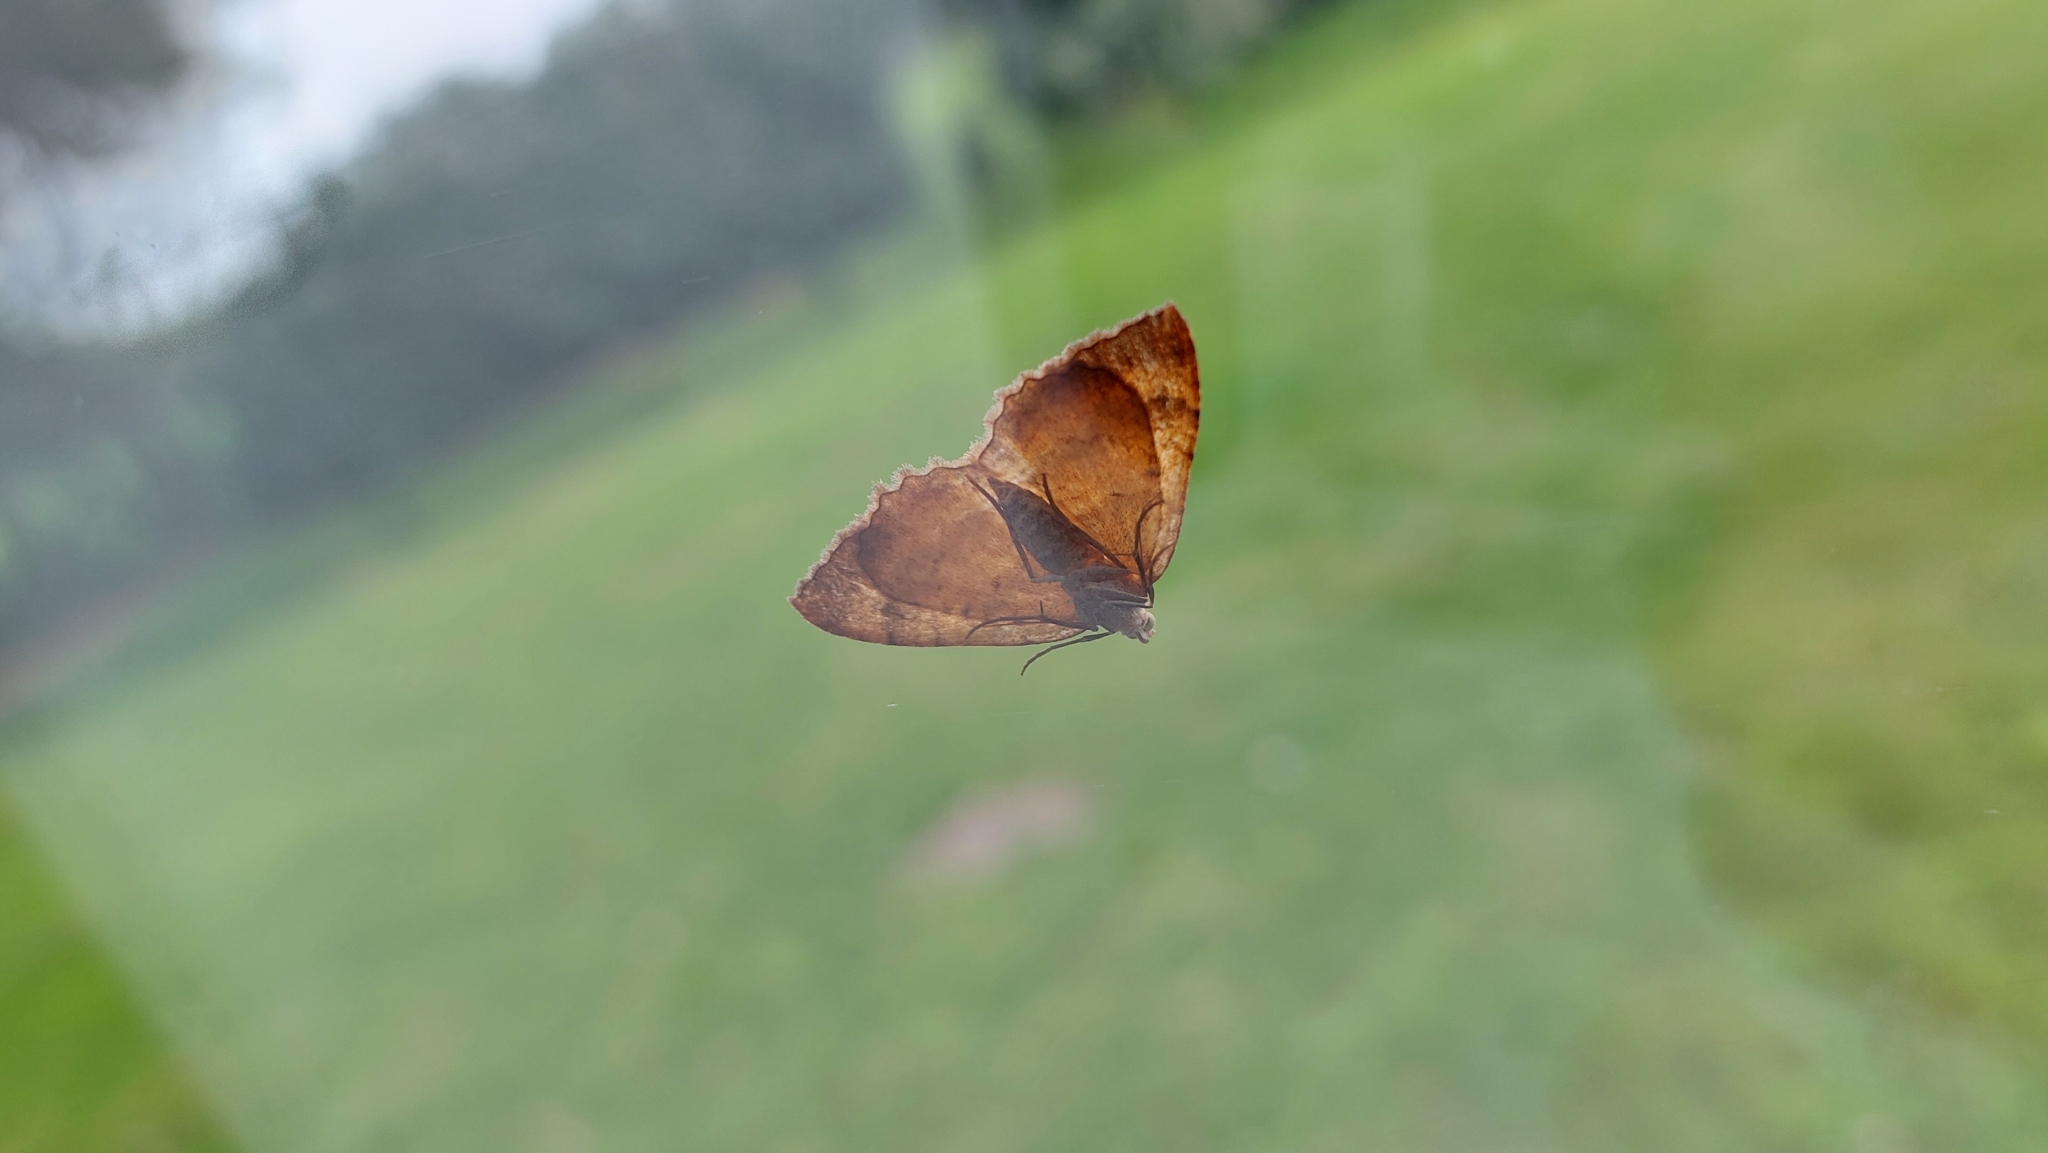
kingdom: Animalia
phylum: Arthropoda
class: Insecta
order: Lepidoptera
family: Geometridae
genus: Camptogramma
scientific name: Camptogramma bilineata
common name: Yellow shell
